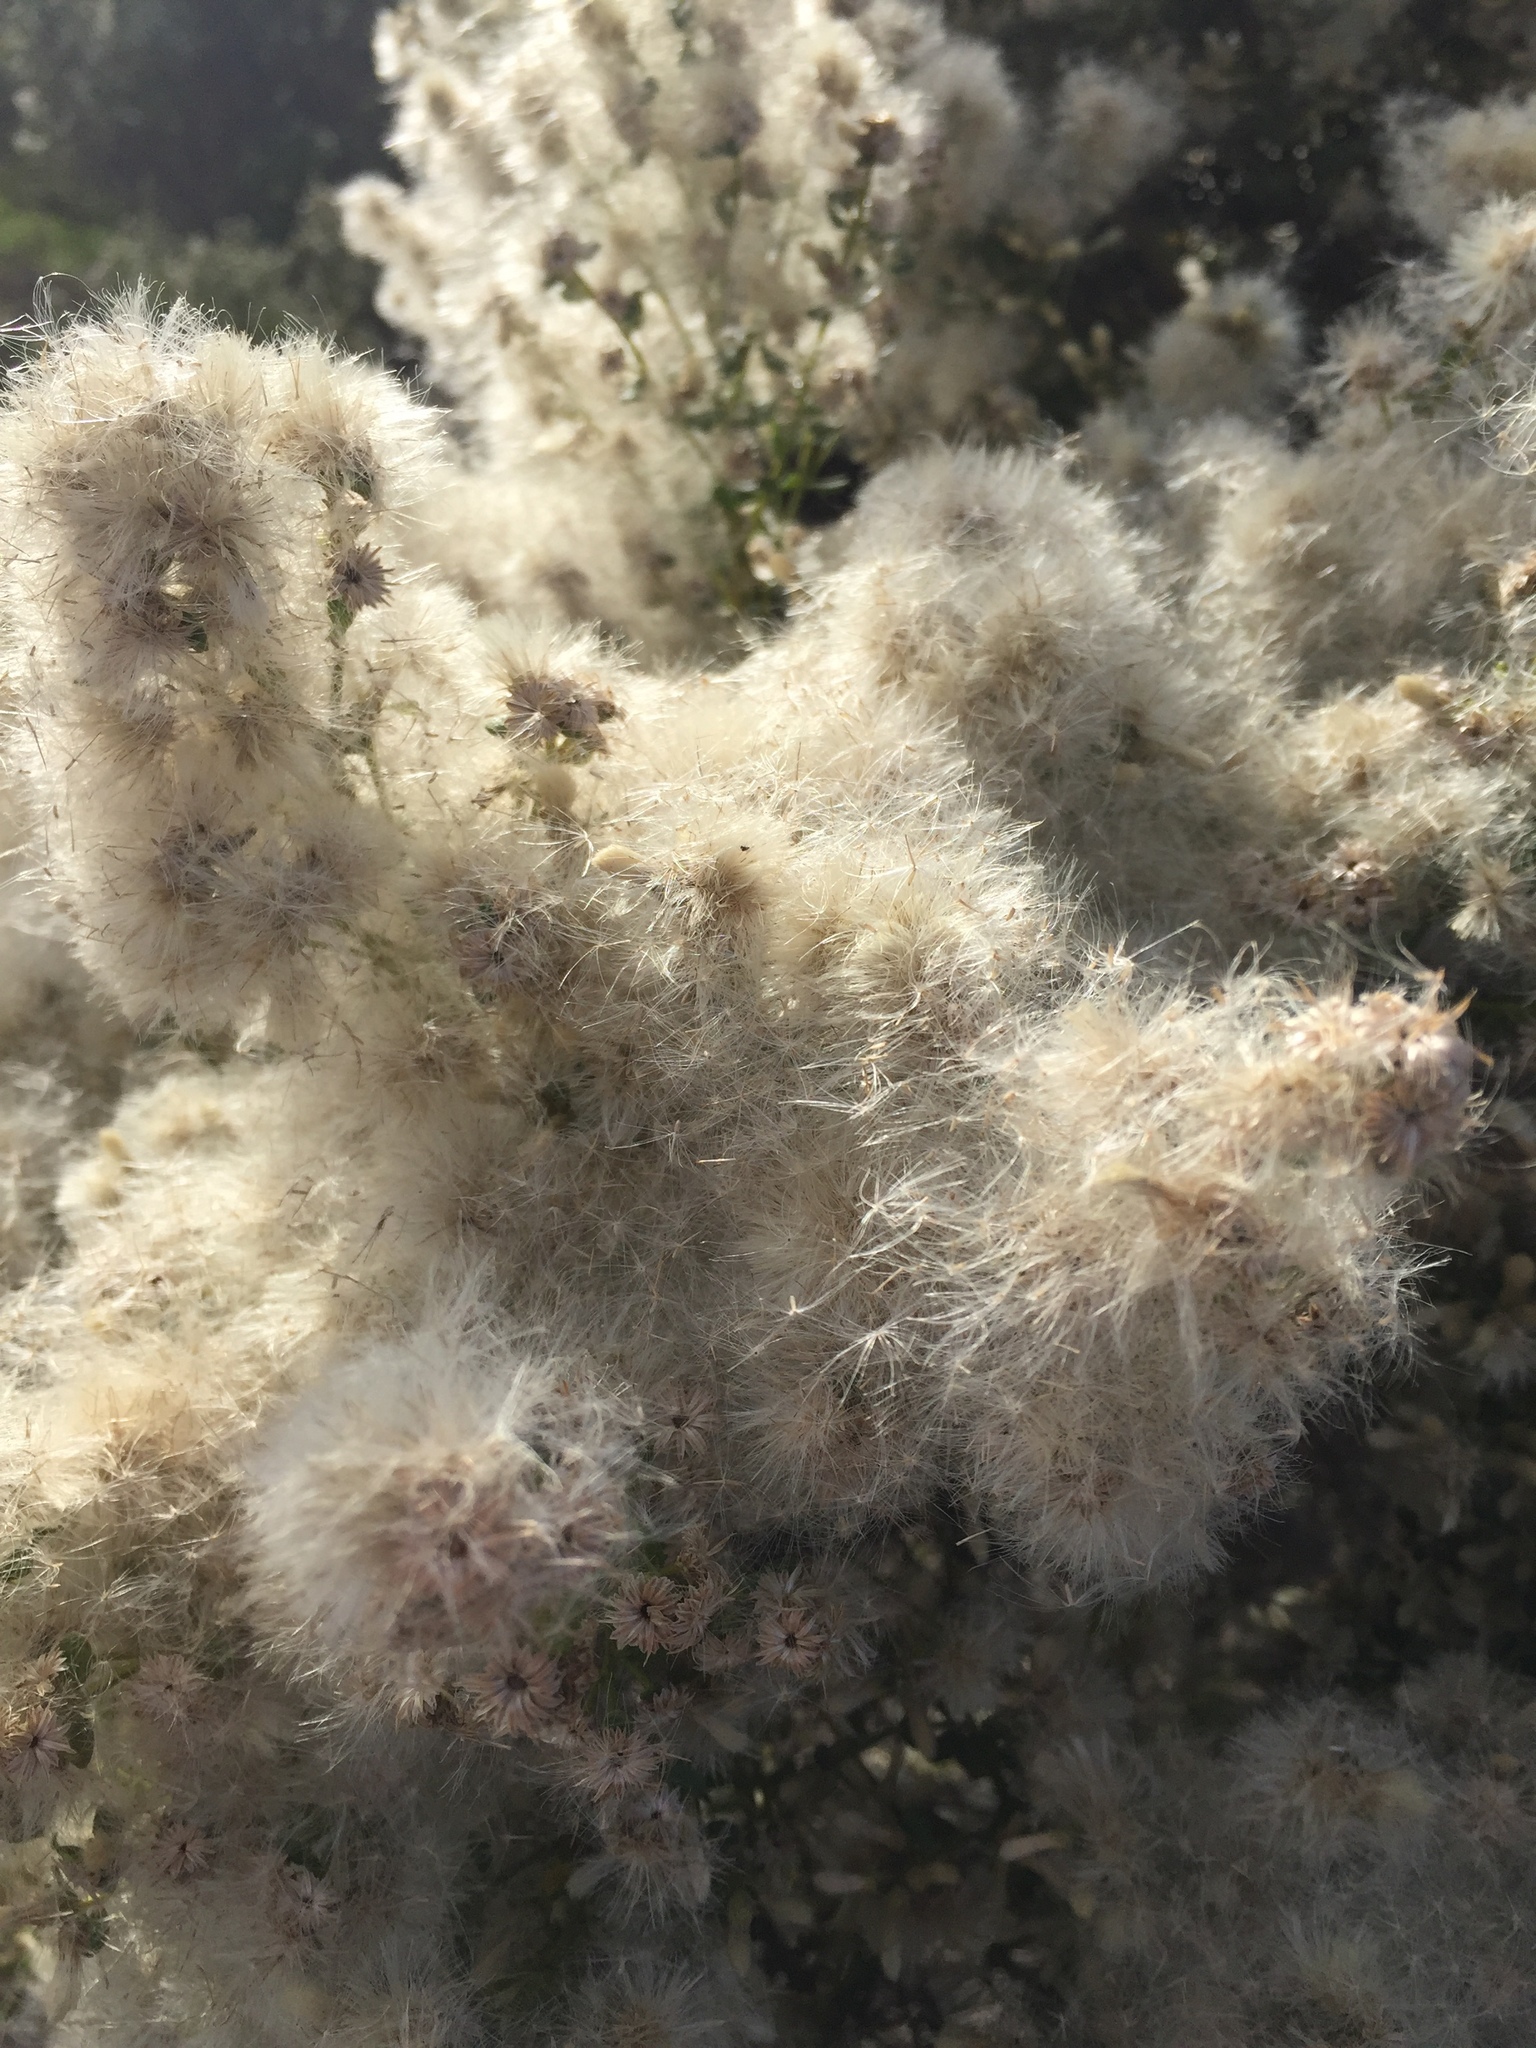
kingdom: Plantae
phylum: Tracheophyta
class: Magnoliopsida
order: Asterales
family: Asteraceae
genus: Baccharis
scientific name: Baccharis pilularis
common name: Coyotebrush
